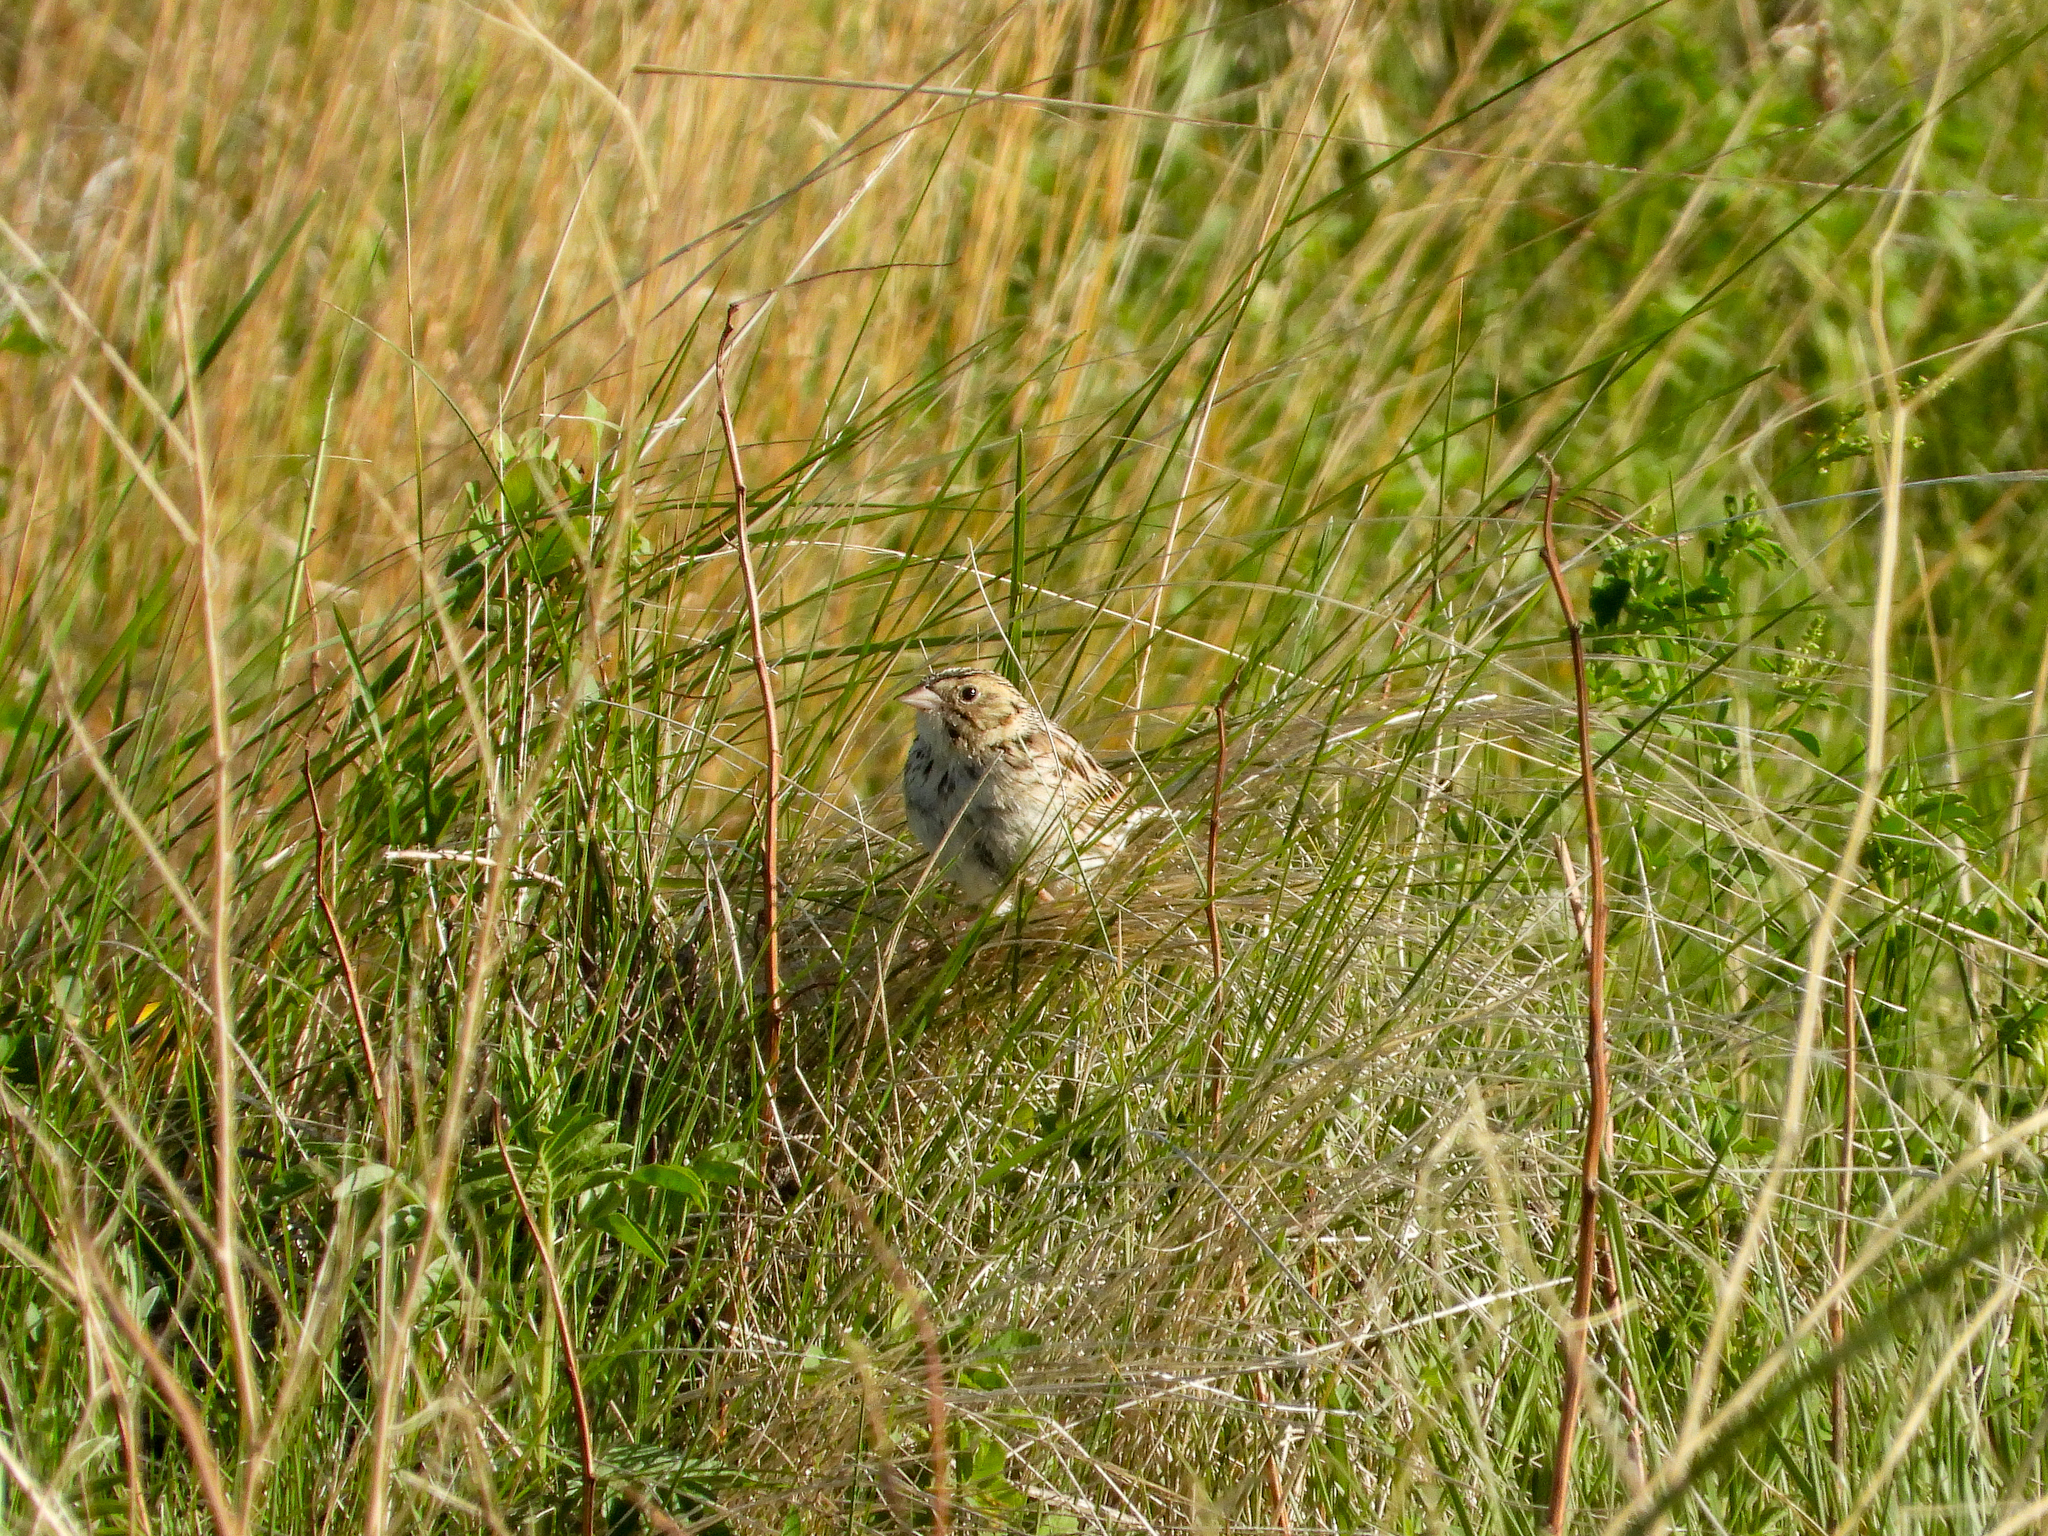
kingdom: Animalia
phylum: Chordata
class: Aves
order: Passeriformes
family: Passerellidae
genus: Centronyx
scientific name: Centronyx bairdii
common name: Baird's sparrow
